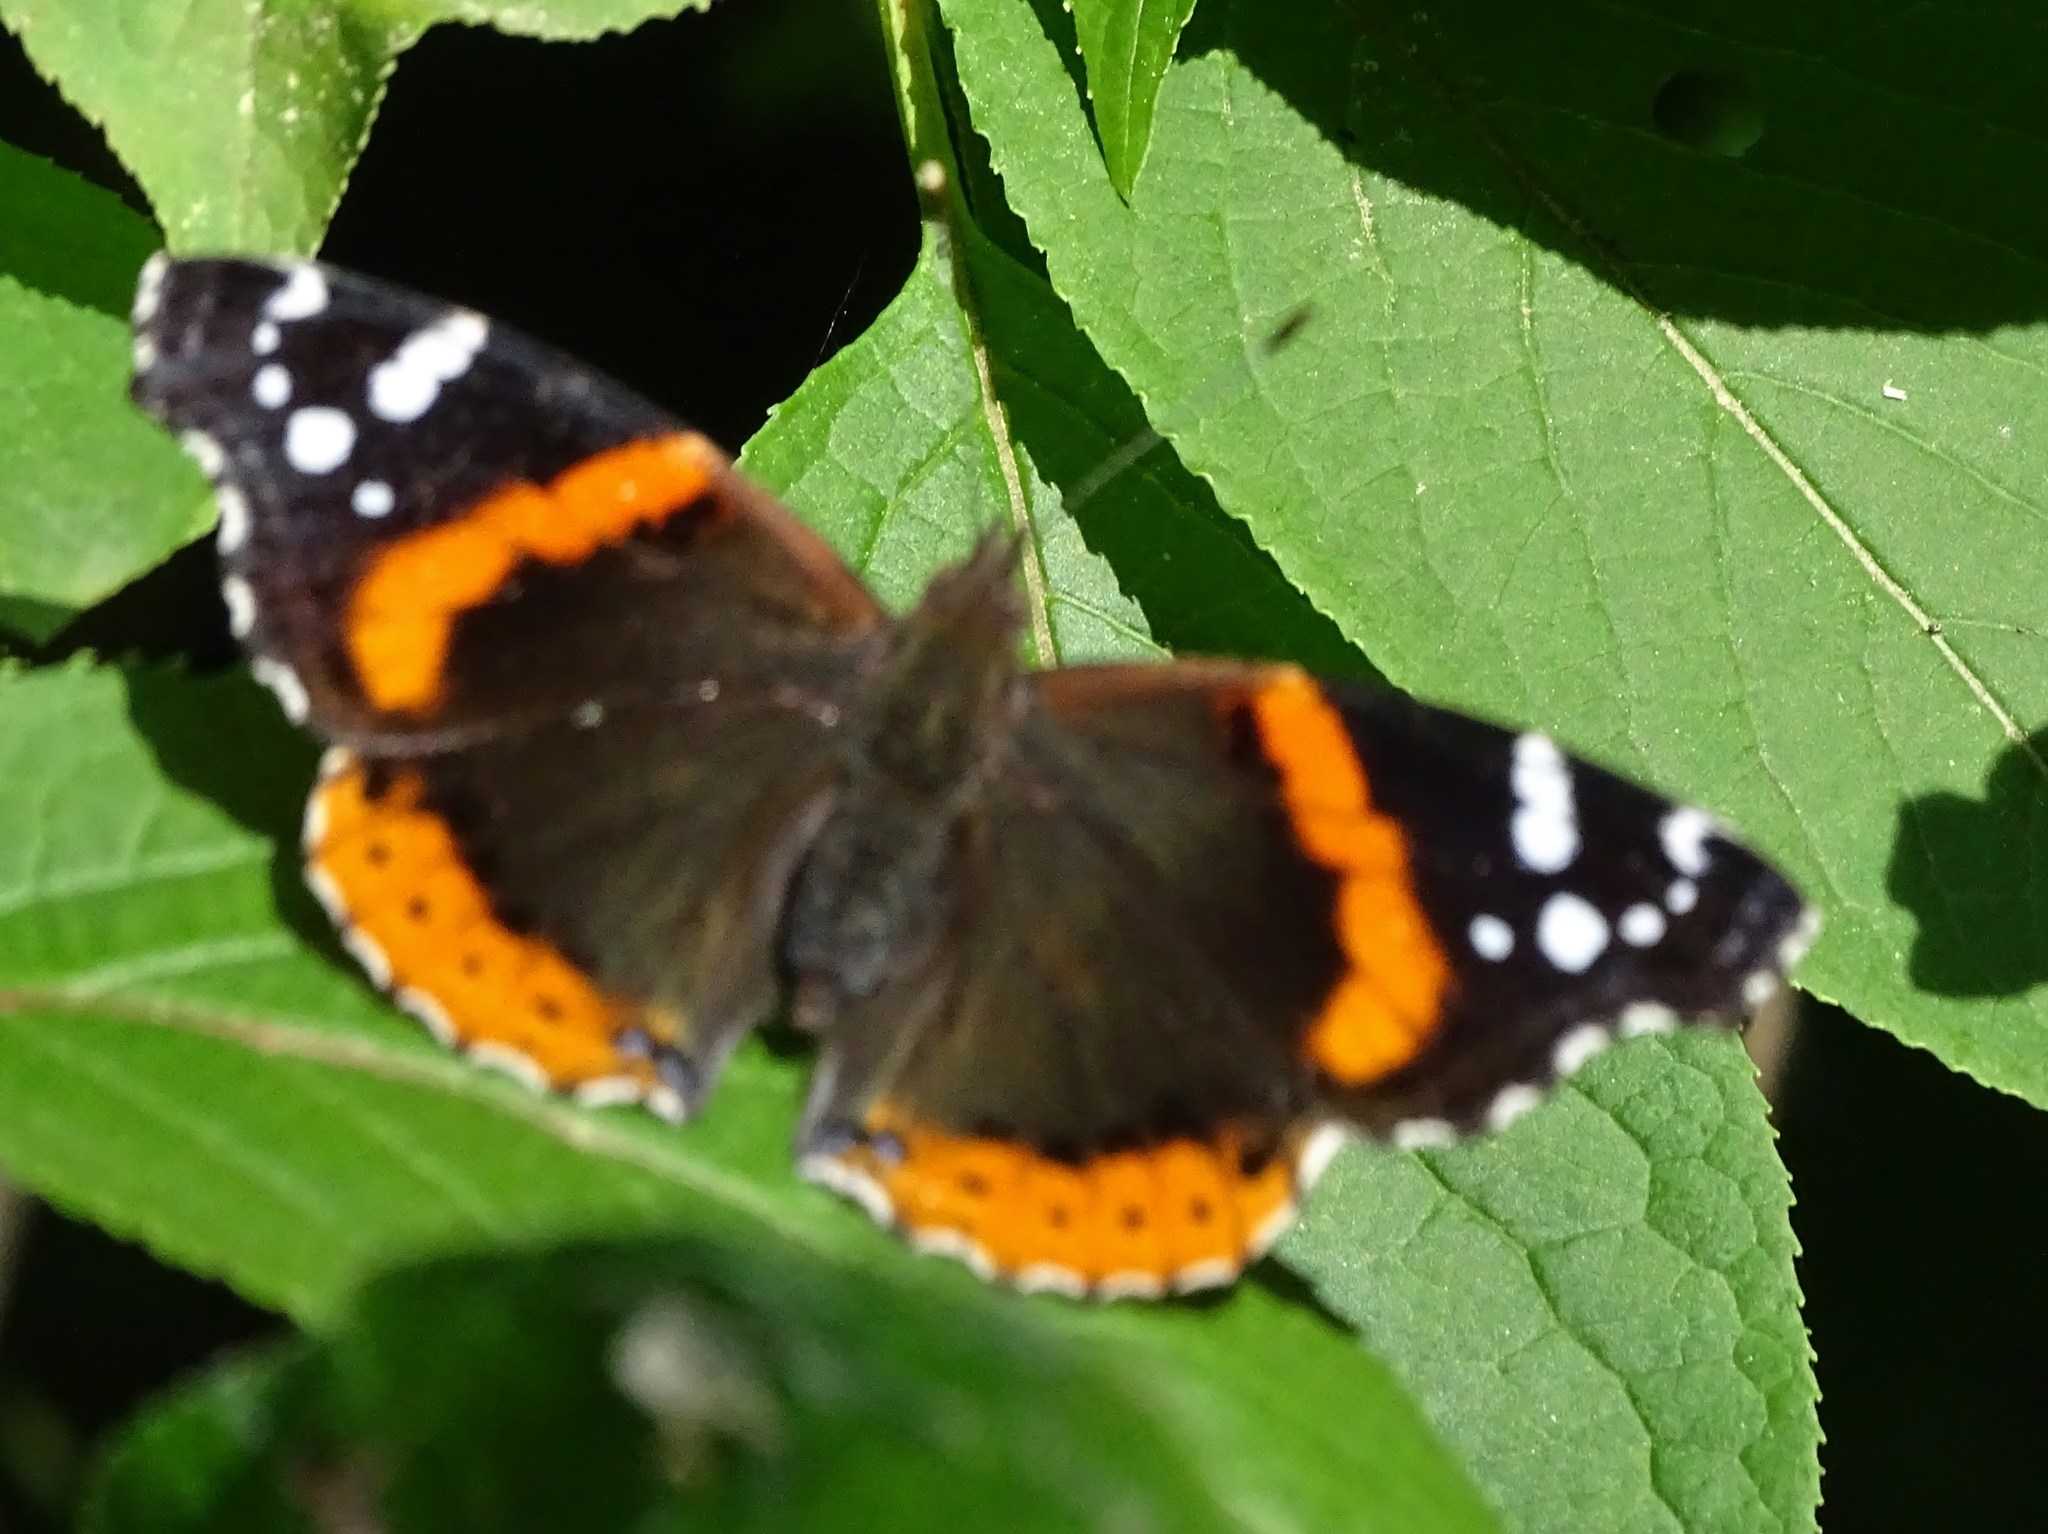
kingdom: Animalia
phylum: Arthropoda
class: Insecta
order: Lepidoptera
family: Nymphalidae
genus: Vanessa
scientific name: Vanessa atalanta
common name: Red admiral
